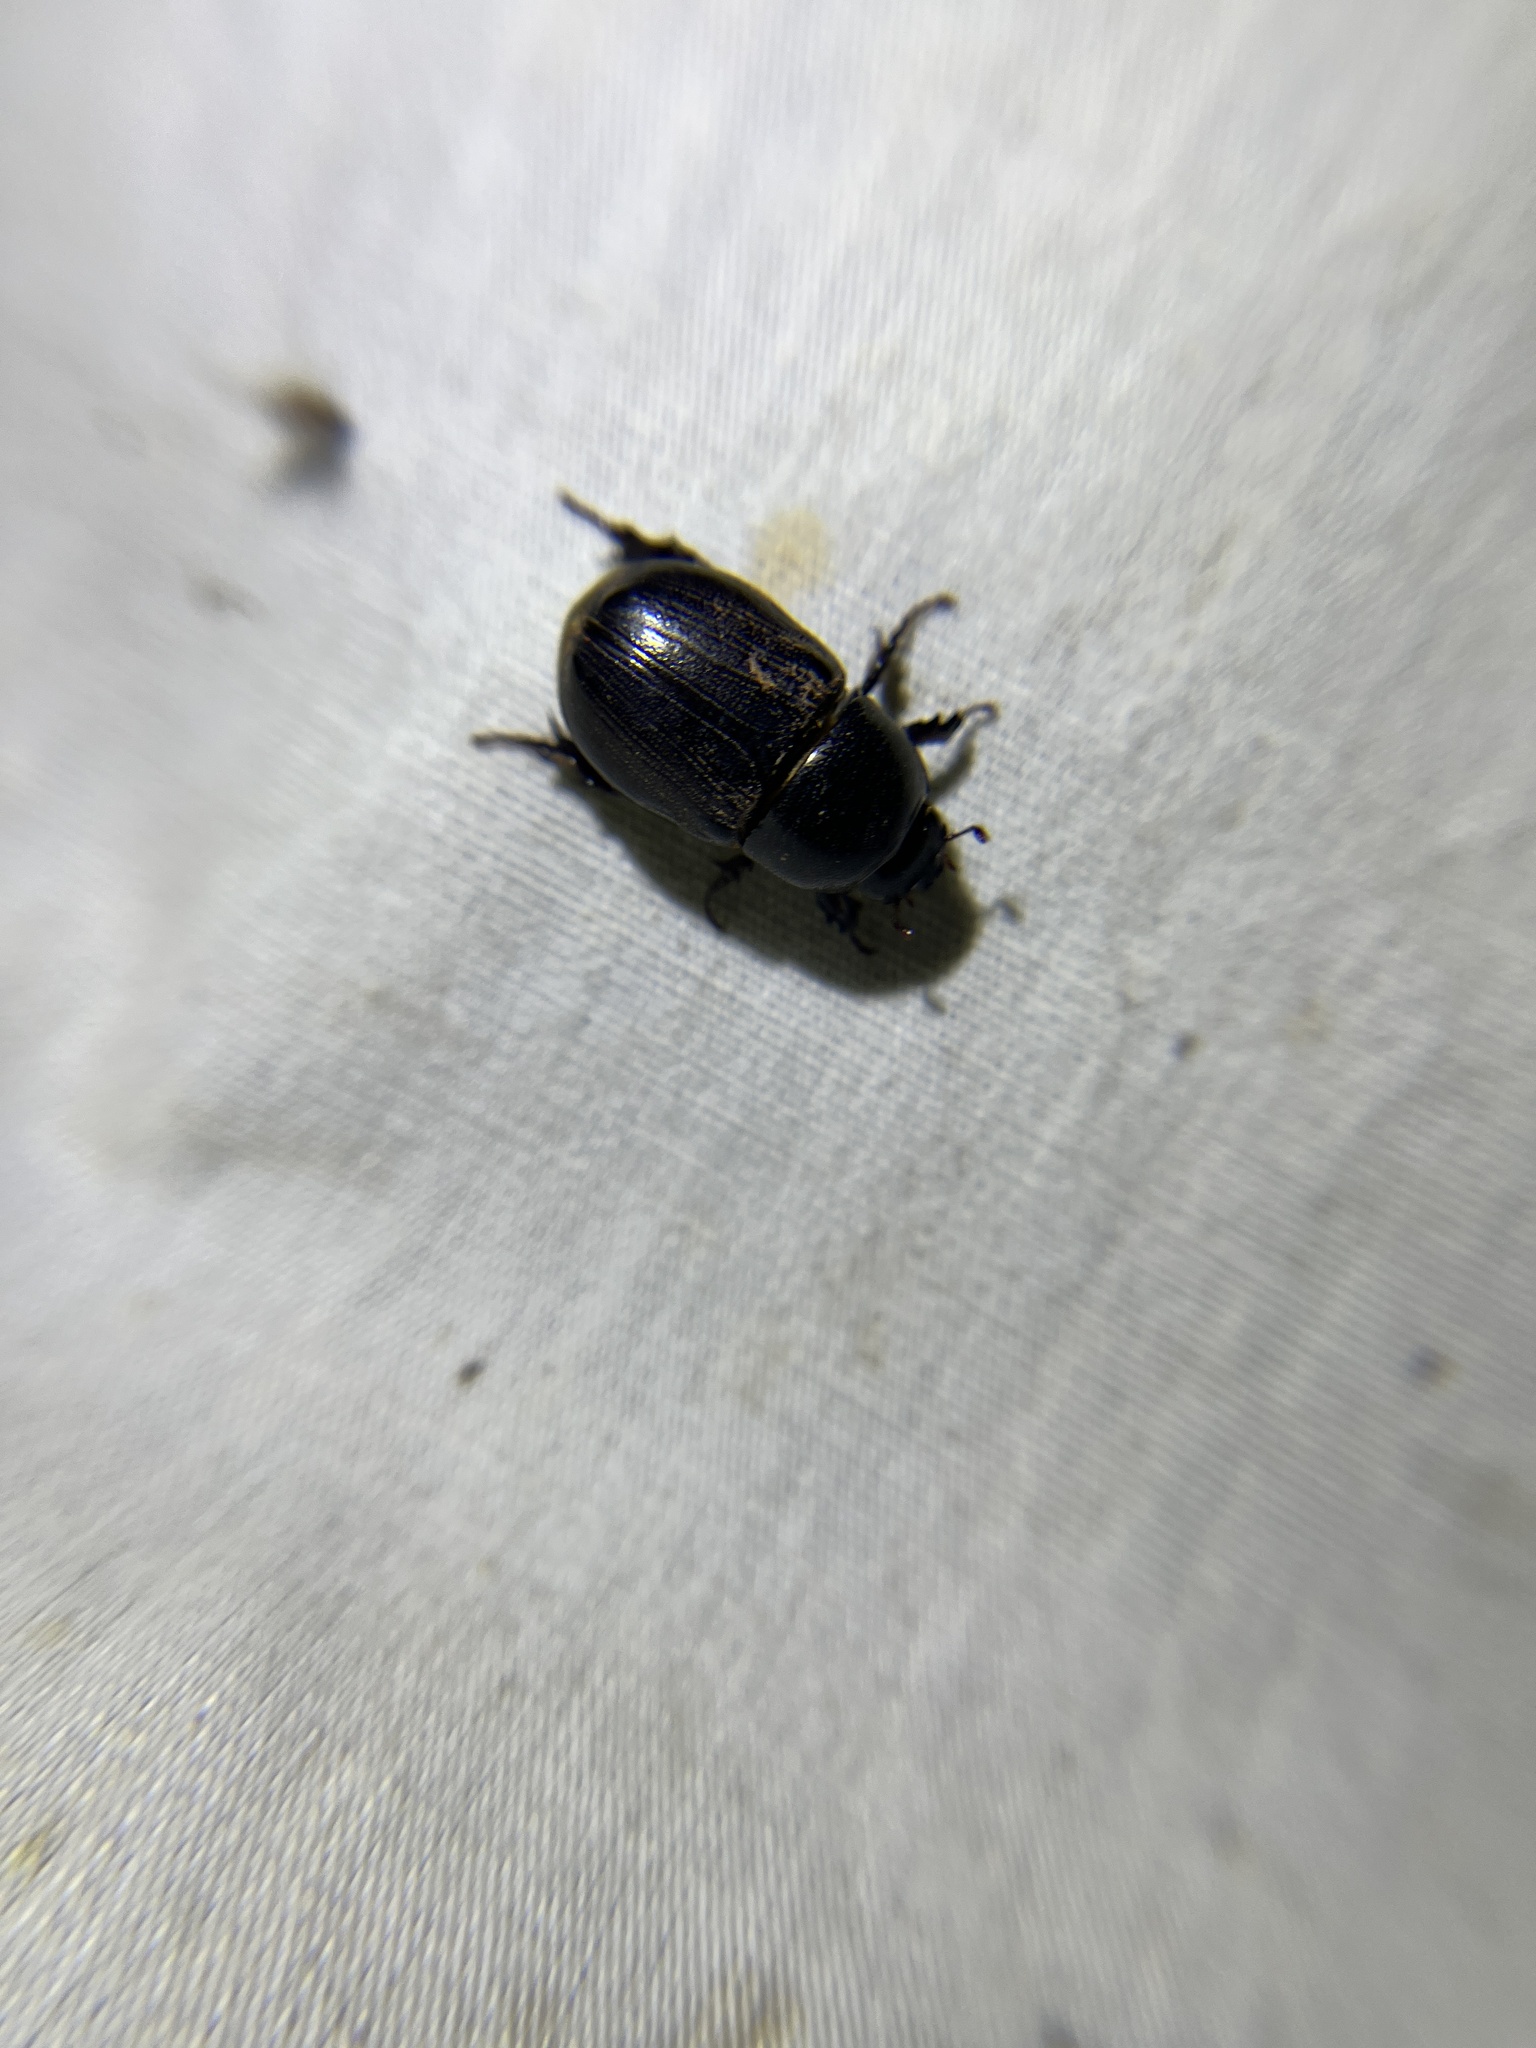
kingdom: Animalia
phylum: Arthropoda
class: Insecta
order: Coleoptera
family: Scarabaeidae
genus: Euetheola
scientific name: Euetheola humilis
